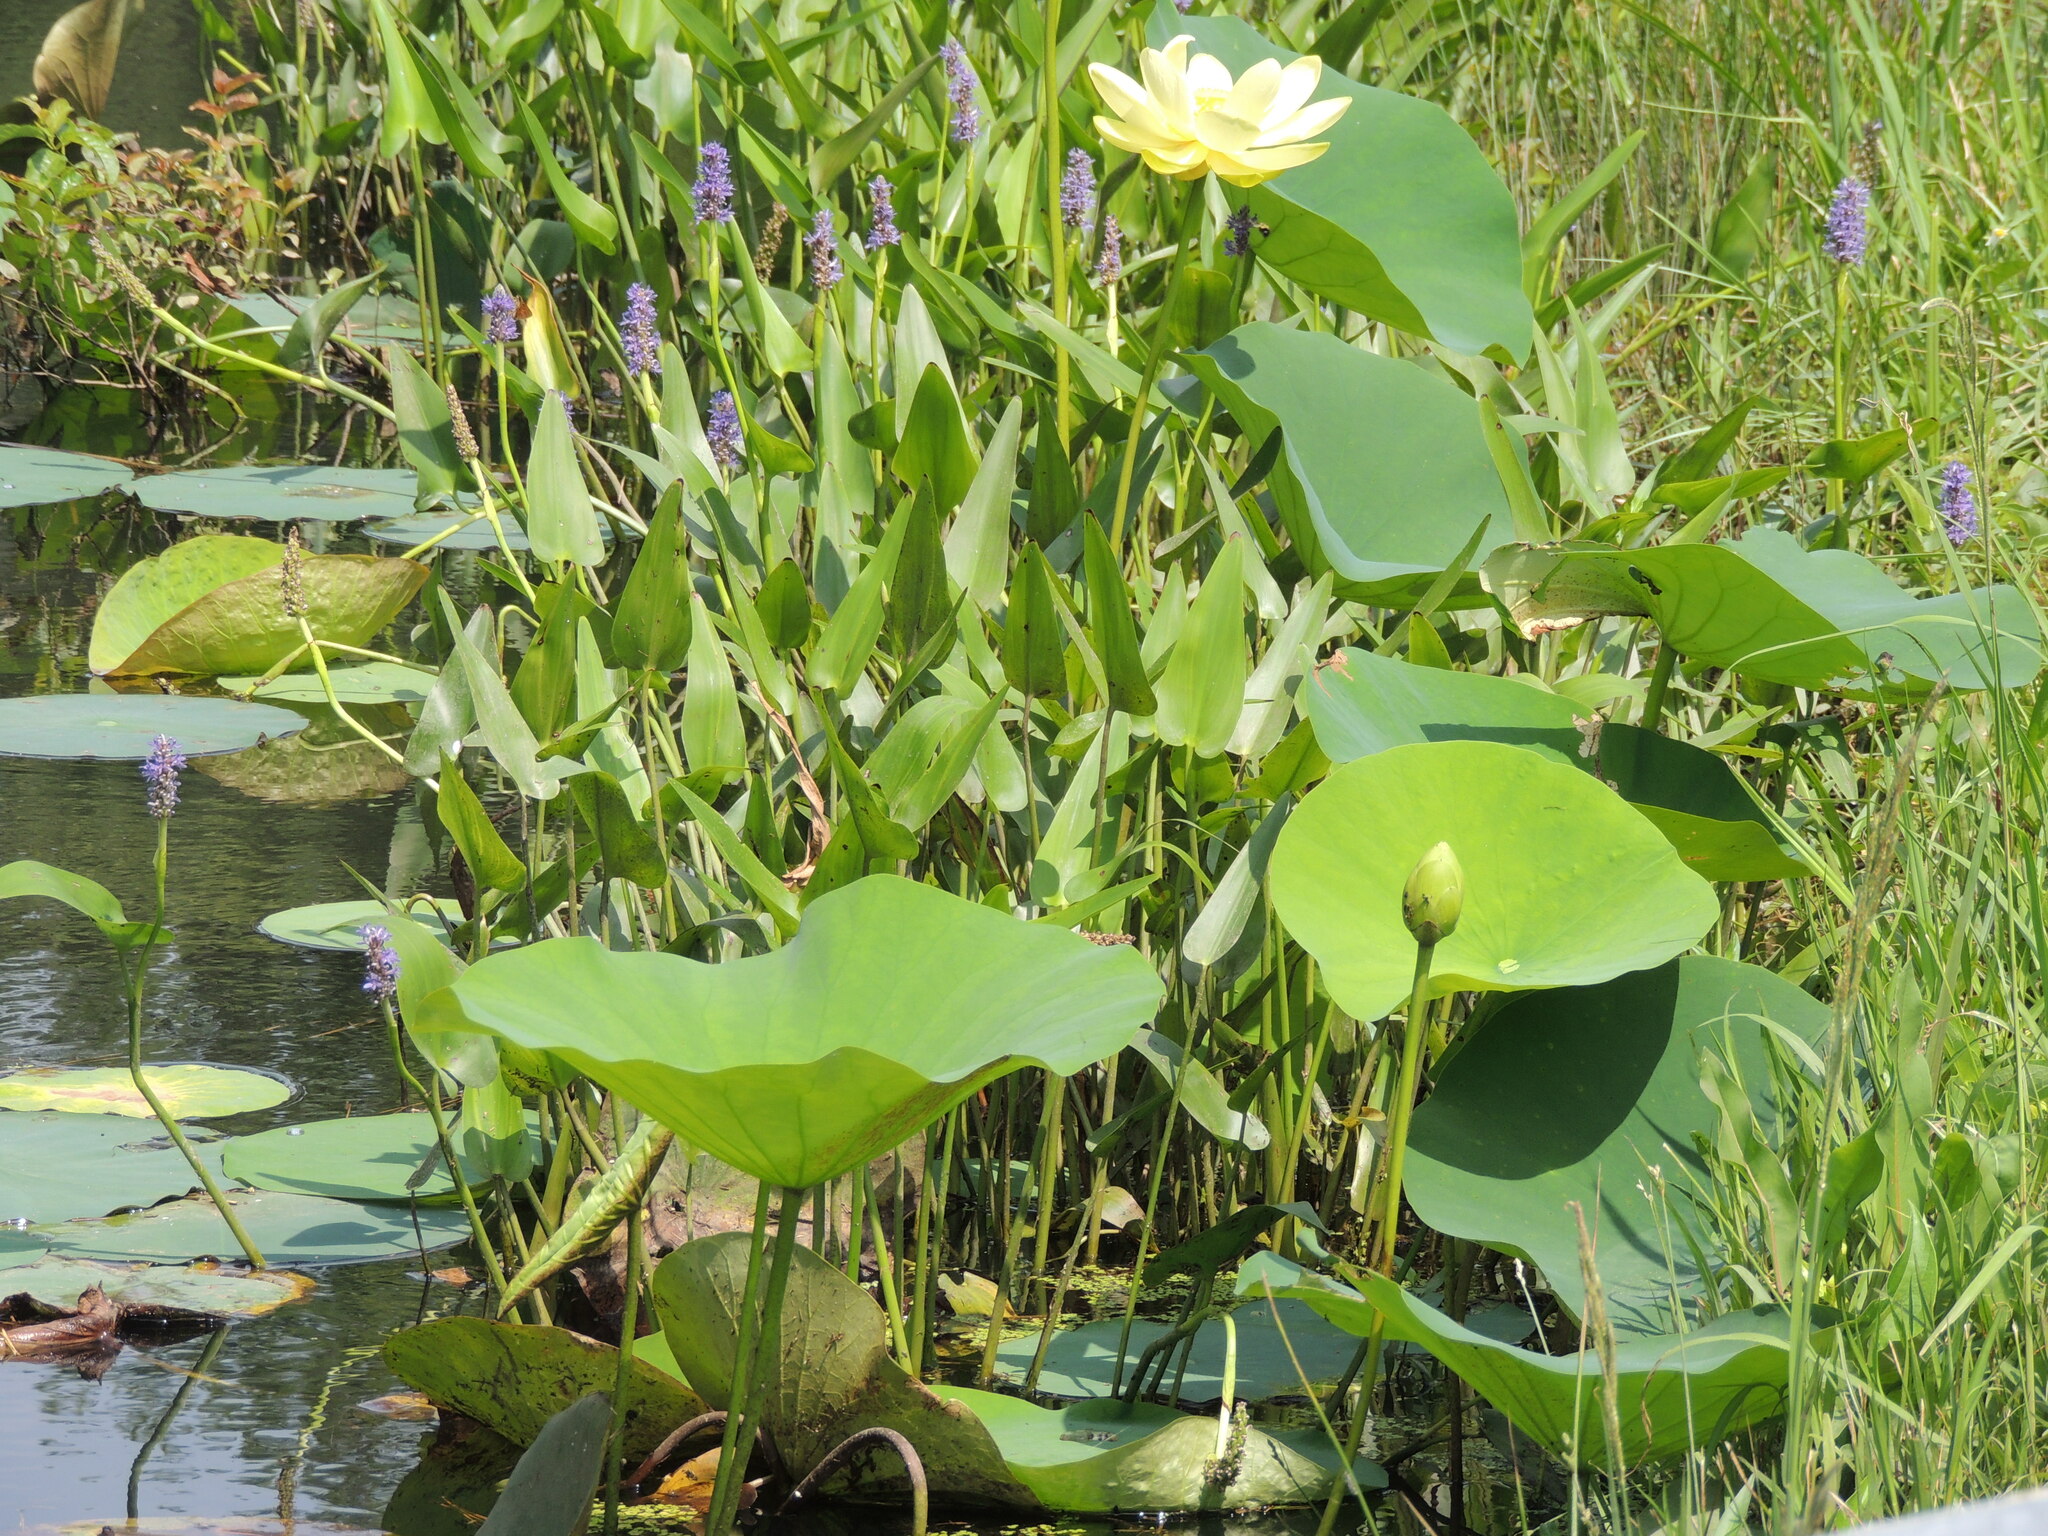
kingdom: Plantae
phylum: Tracheophyta
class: Magnoliopsida
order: Proteales
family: Nelumbonaceae
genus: Nelumbo
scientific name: Nelumbo lutea
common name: American lotus
